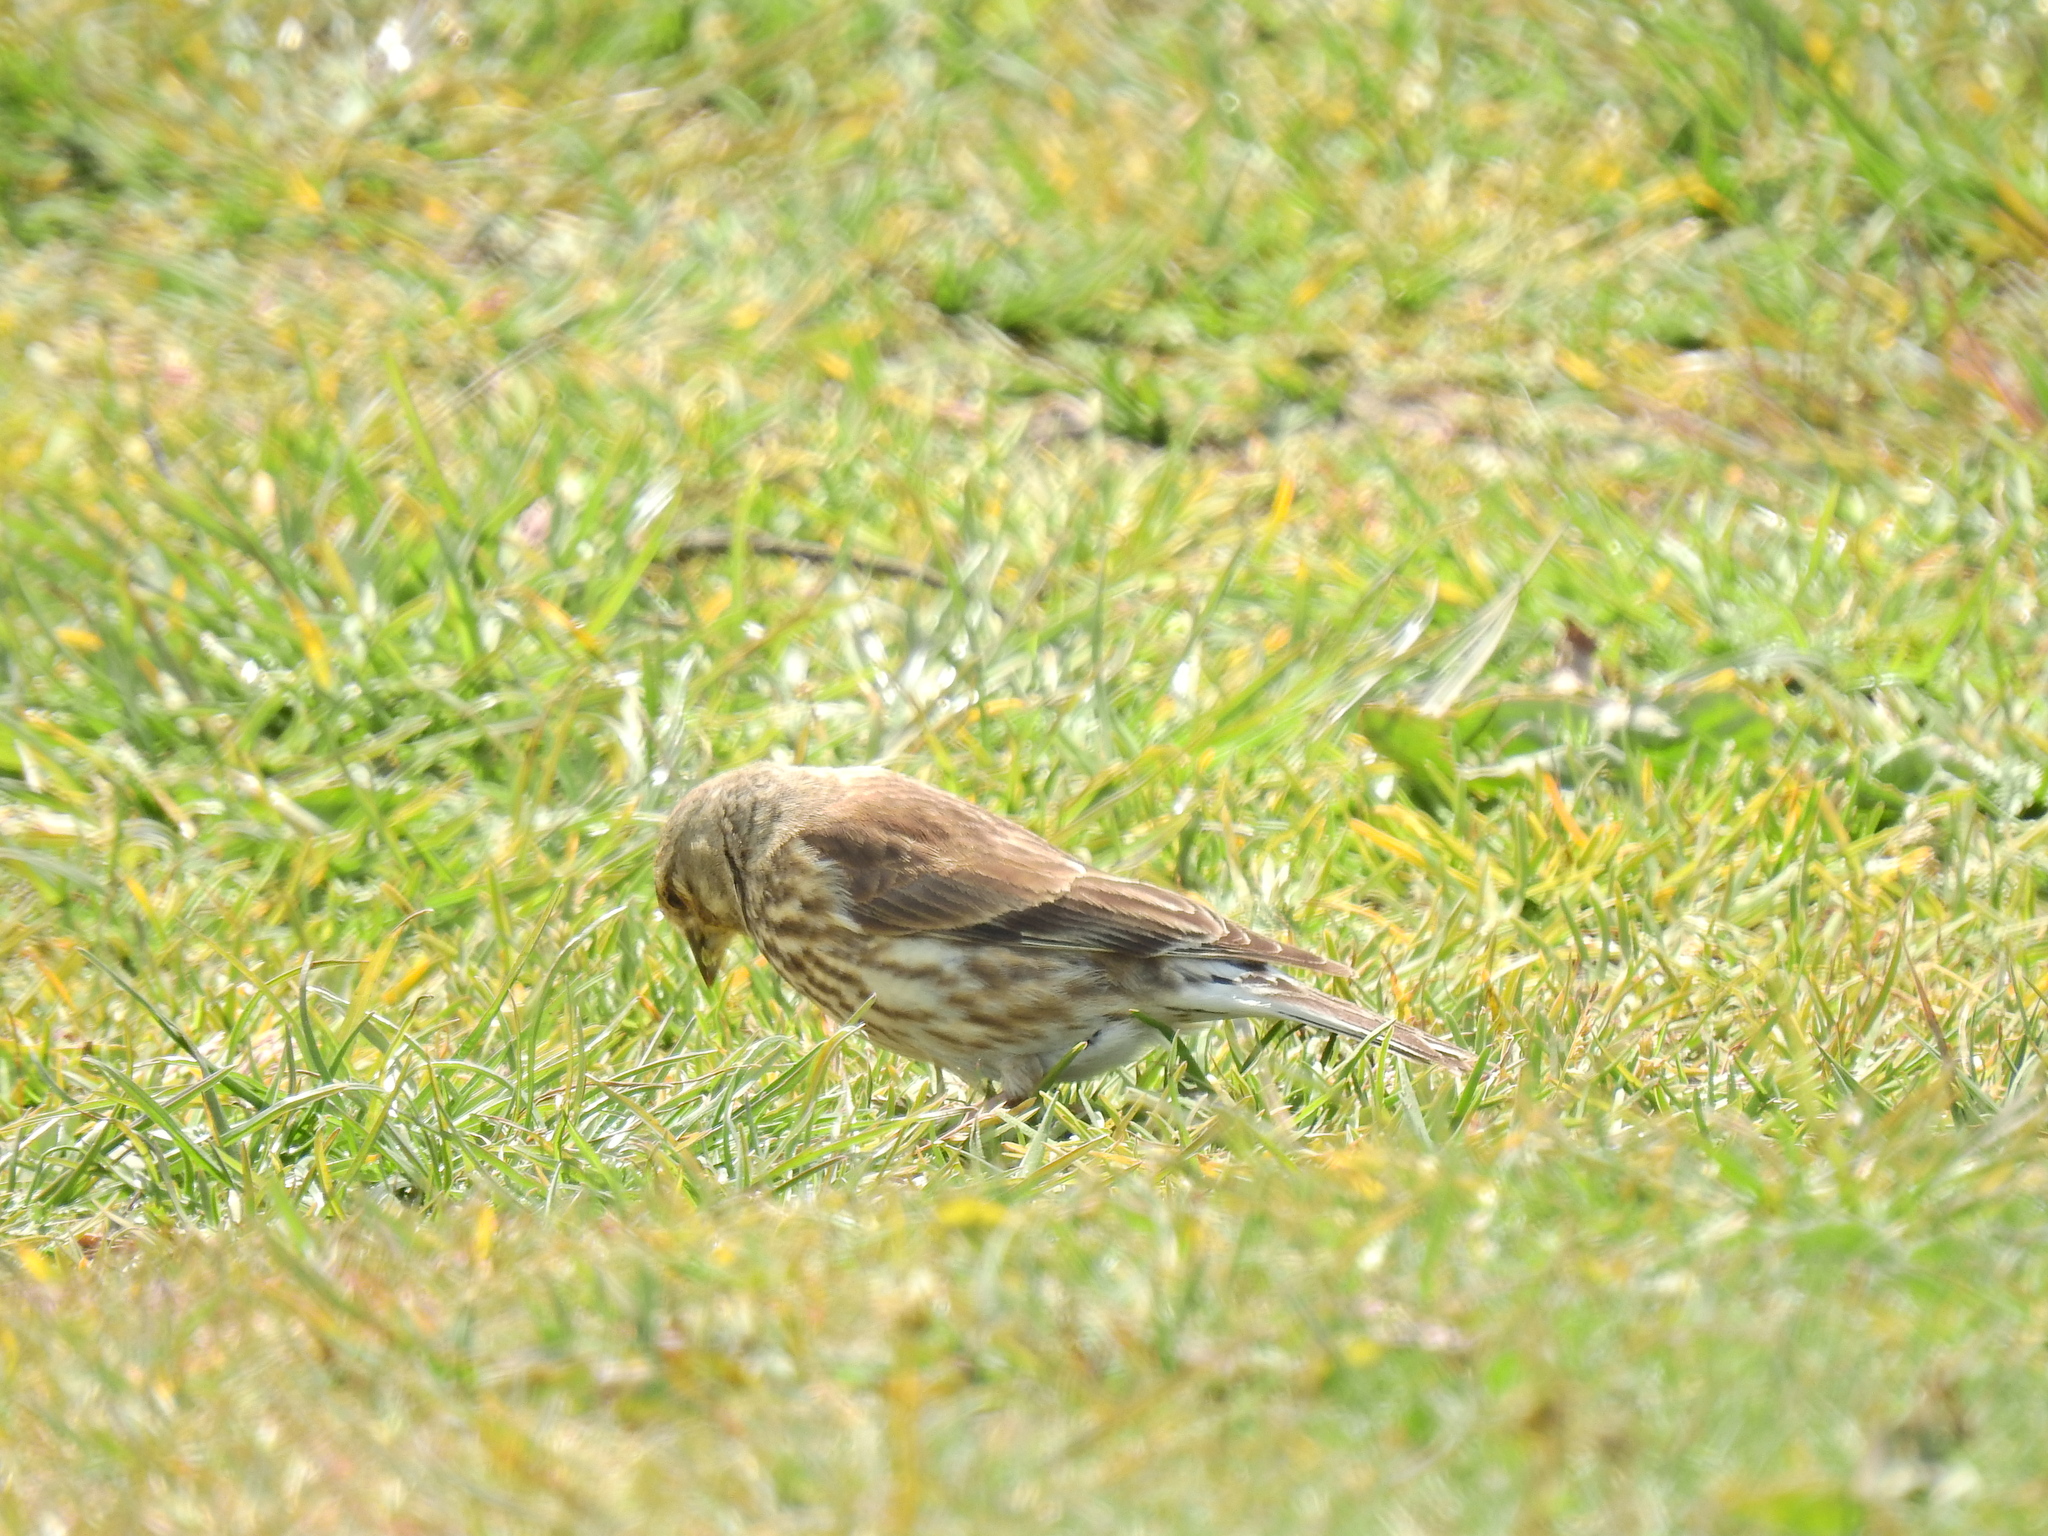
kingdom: Animalia
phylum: Chordata
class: Aves
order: Passeriformes
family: Fringillidae
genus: Linaria
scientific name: Linaria cannabina
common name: Common linnet
